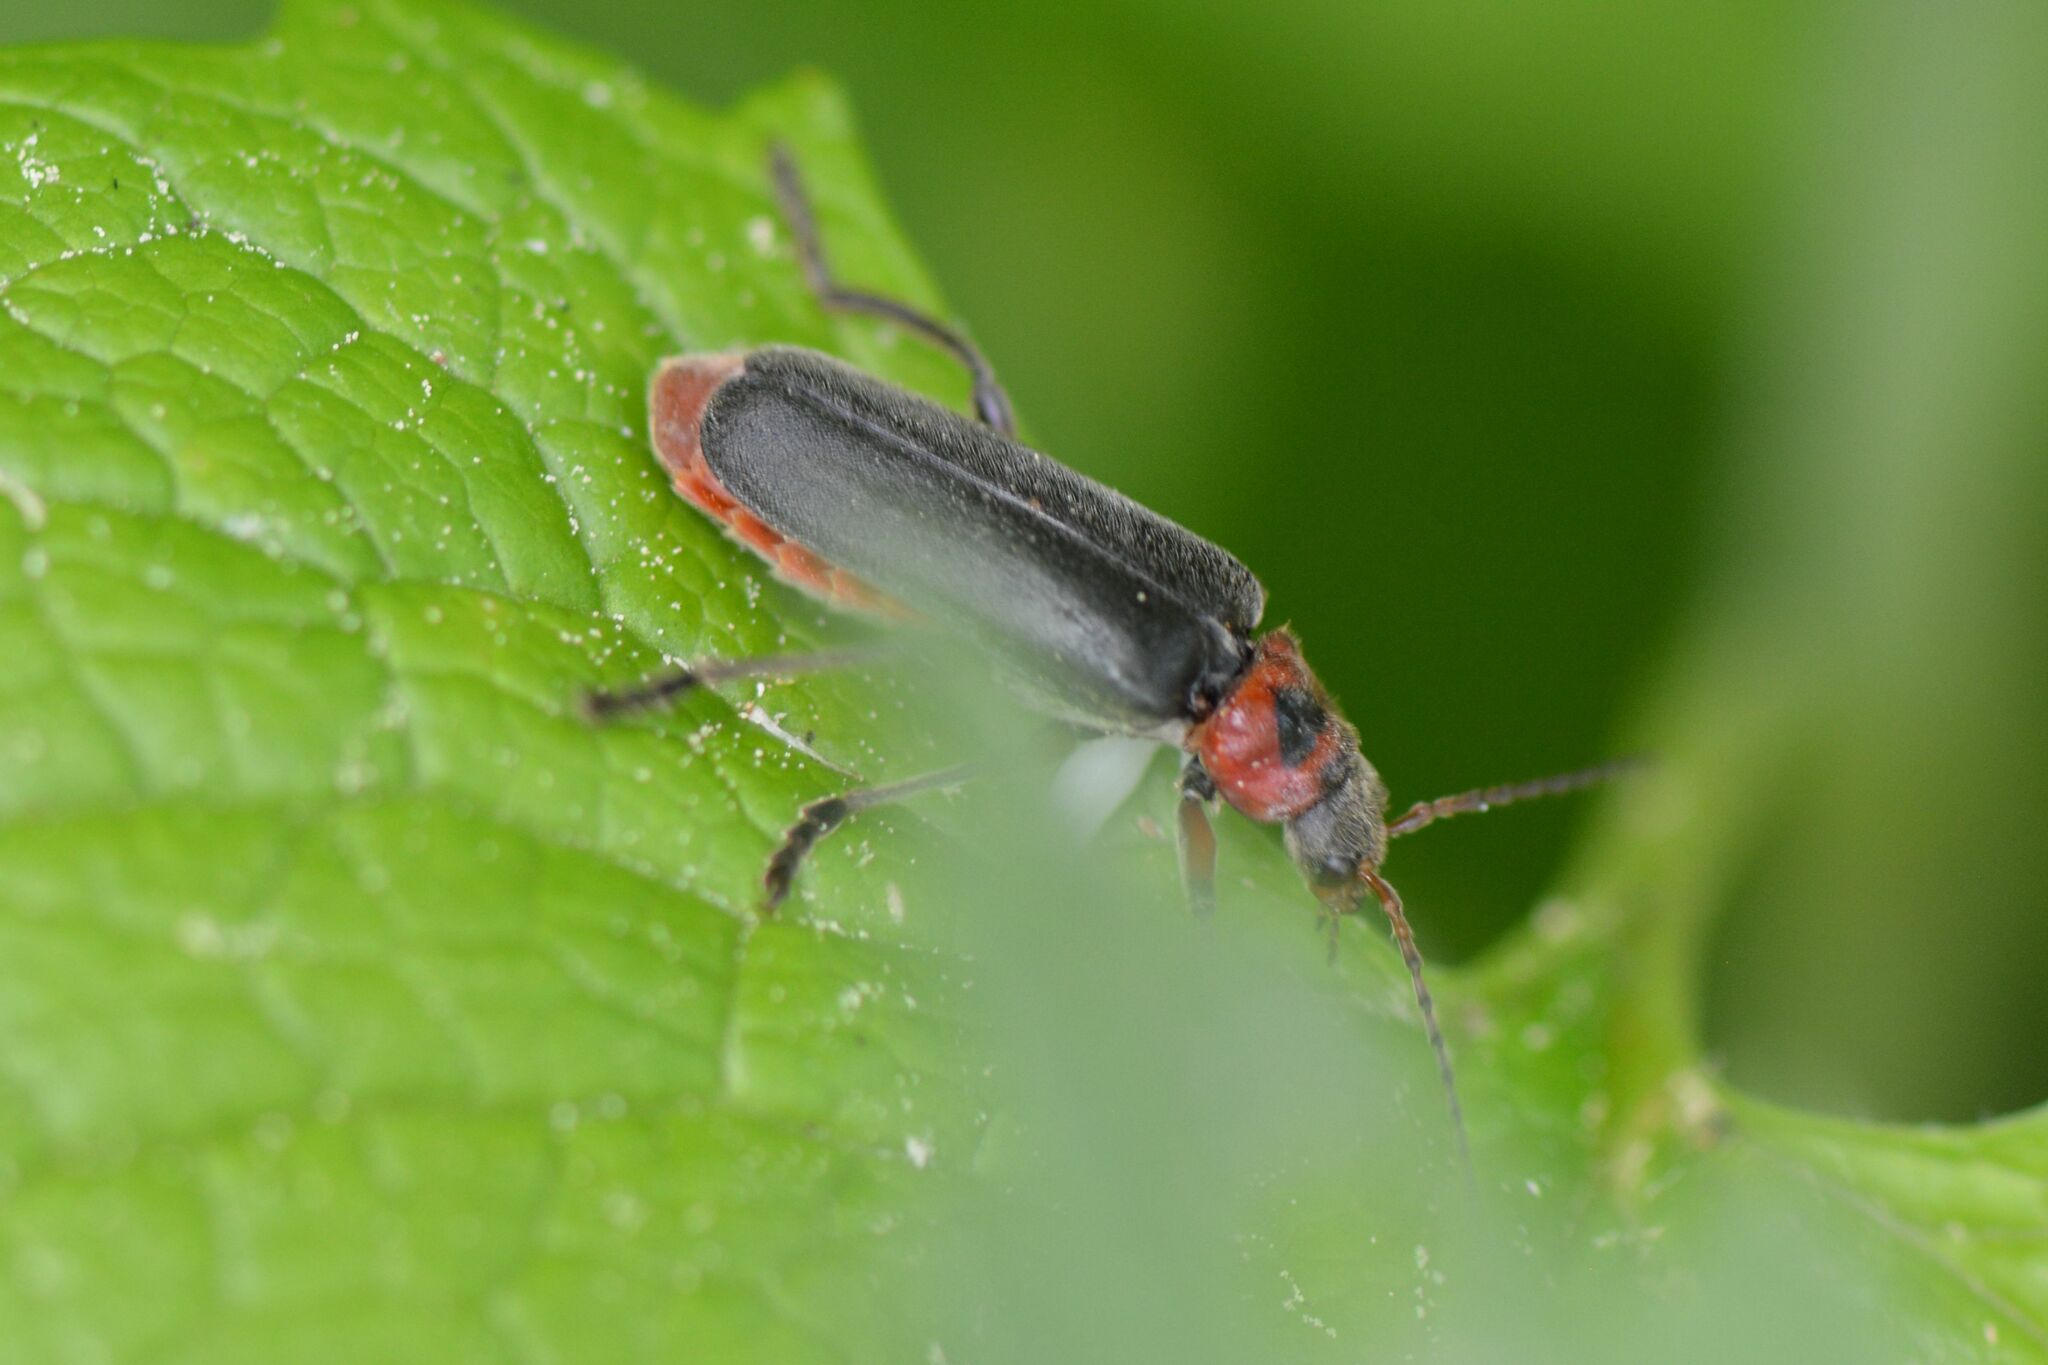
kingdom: Animalia
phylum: Arthropoda
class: Insecta
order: Coleoptera
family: Cantharidae
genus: Cantharis
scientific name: Cantharis rustica
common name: Soldier beetle
